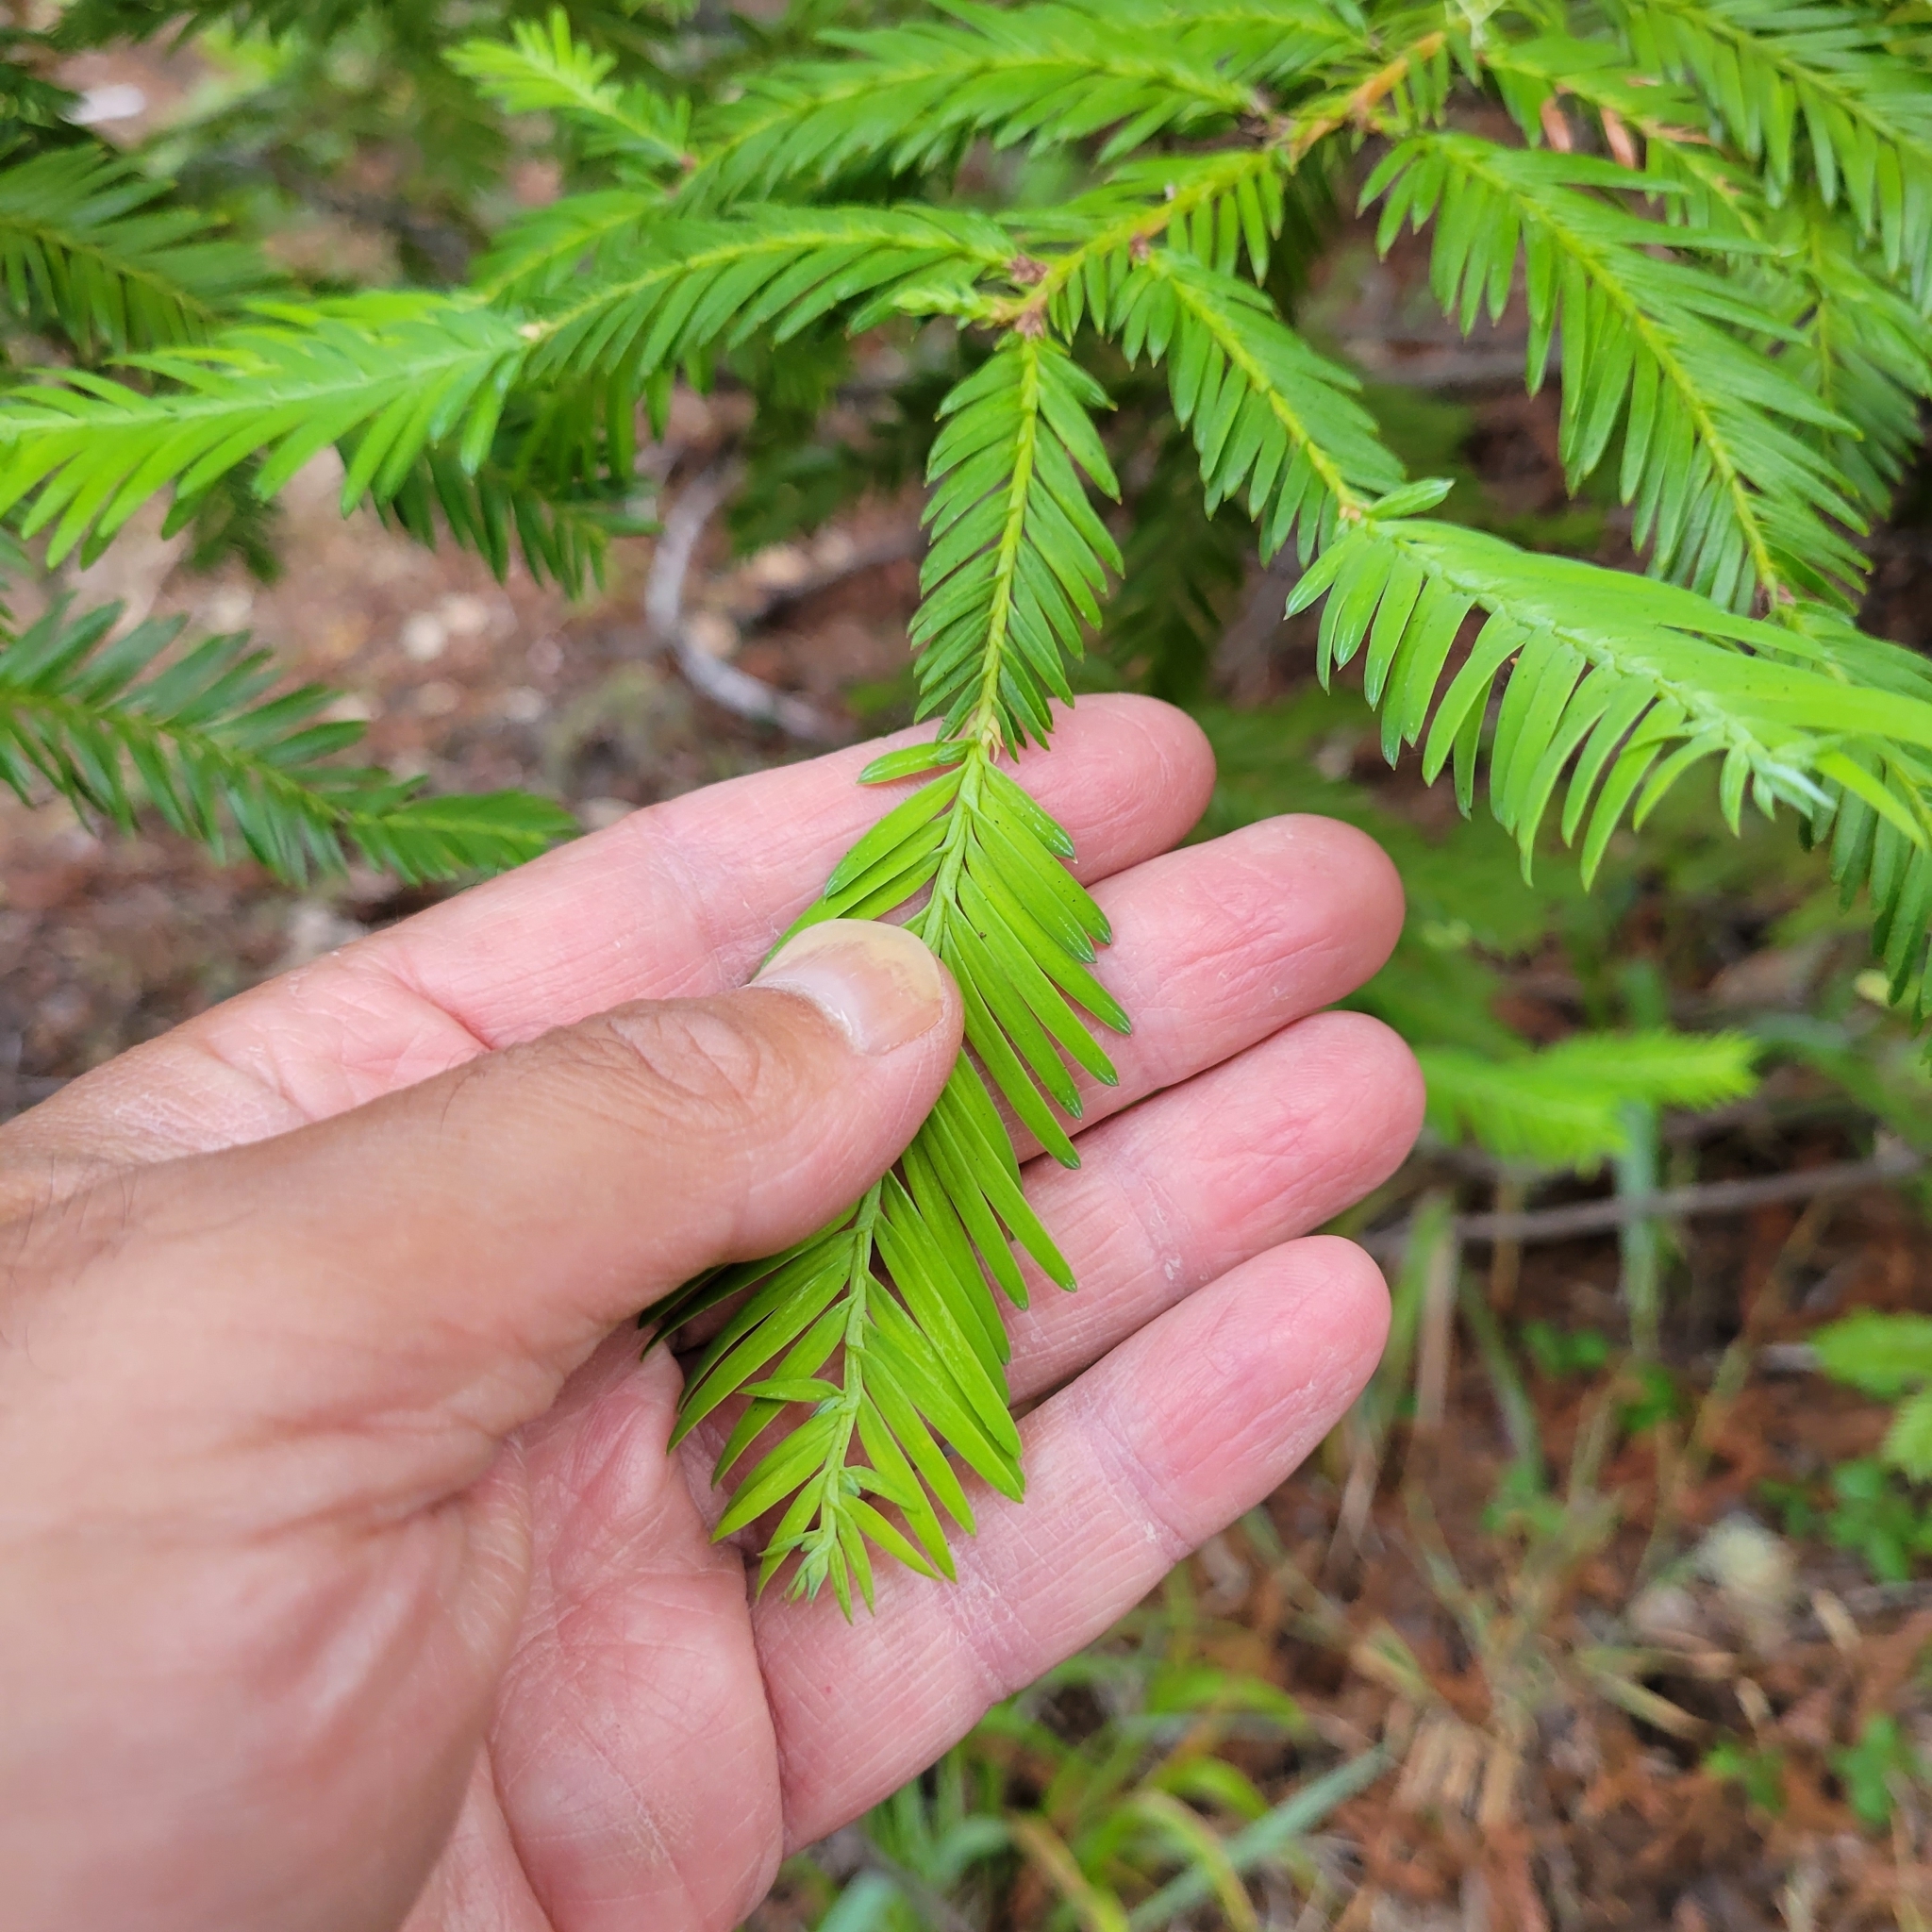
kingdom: Plantae
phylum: Tracheophyta
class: Pinopsida
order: Pinales
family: Cupressaceae
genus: Sequoia
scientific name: Sequoia sempervirens
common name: Coast redwood
